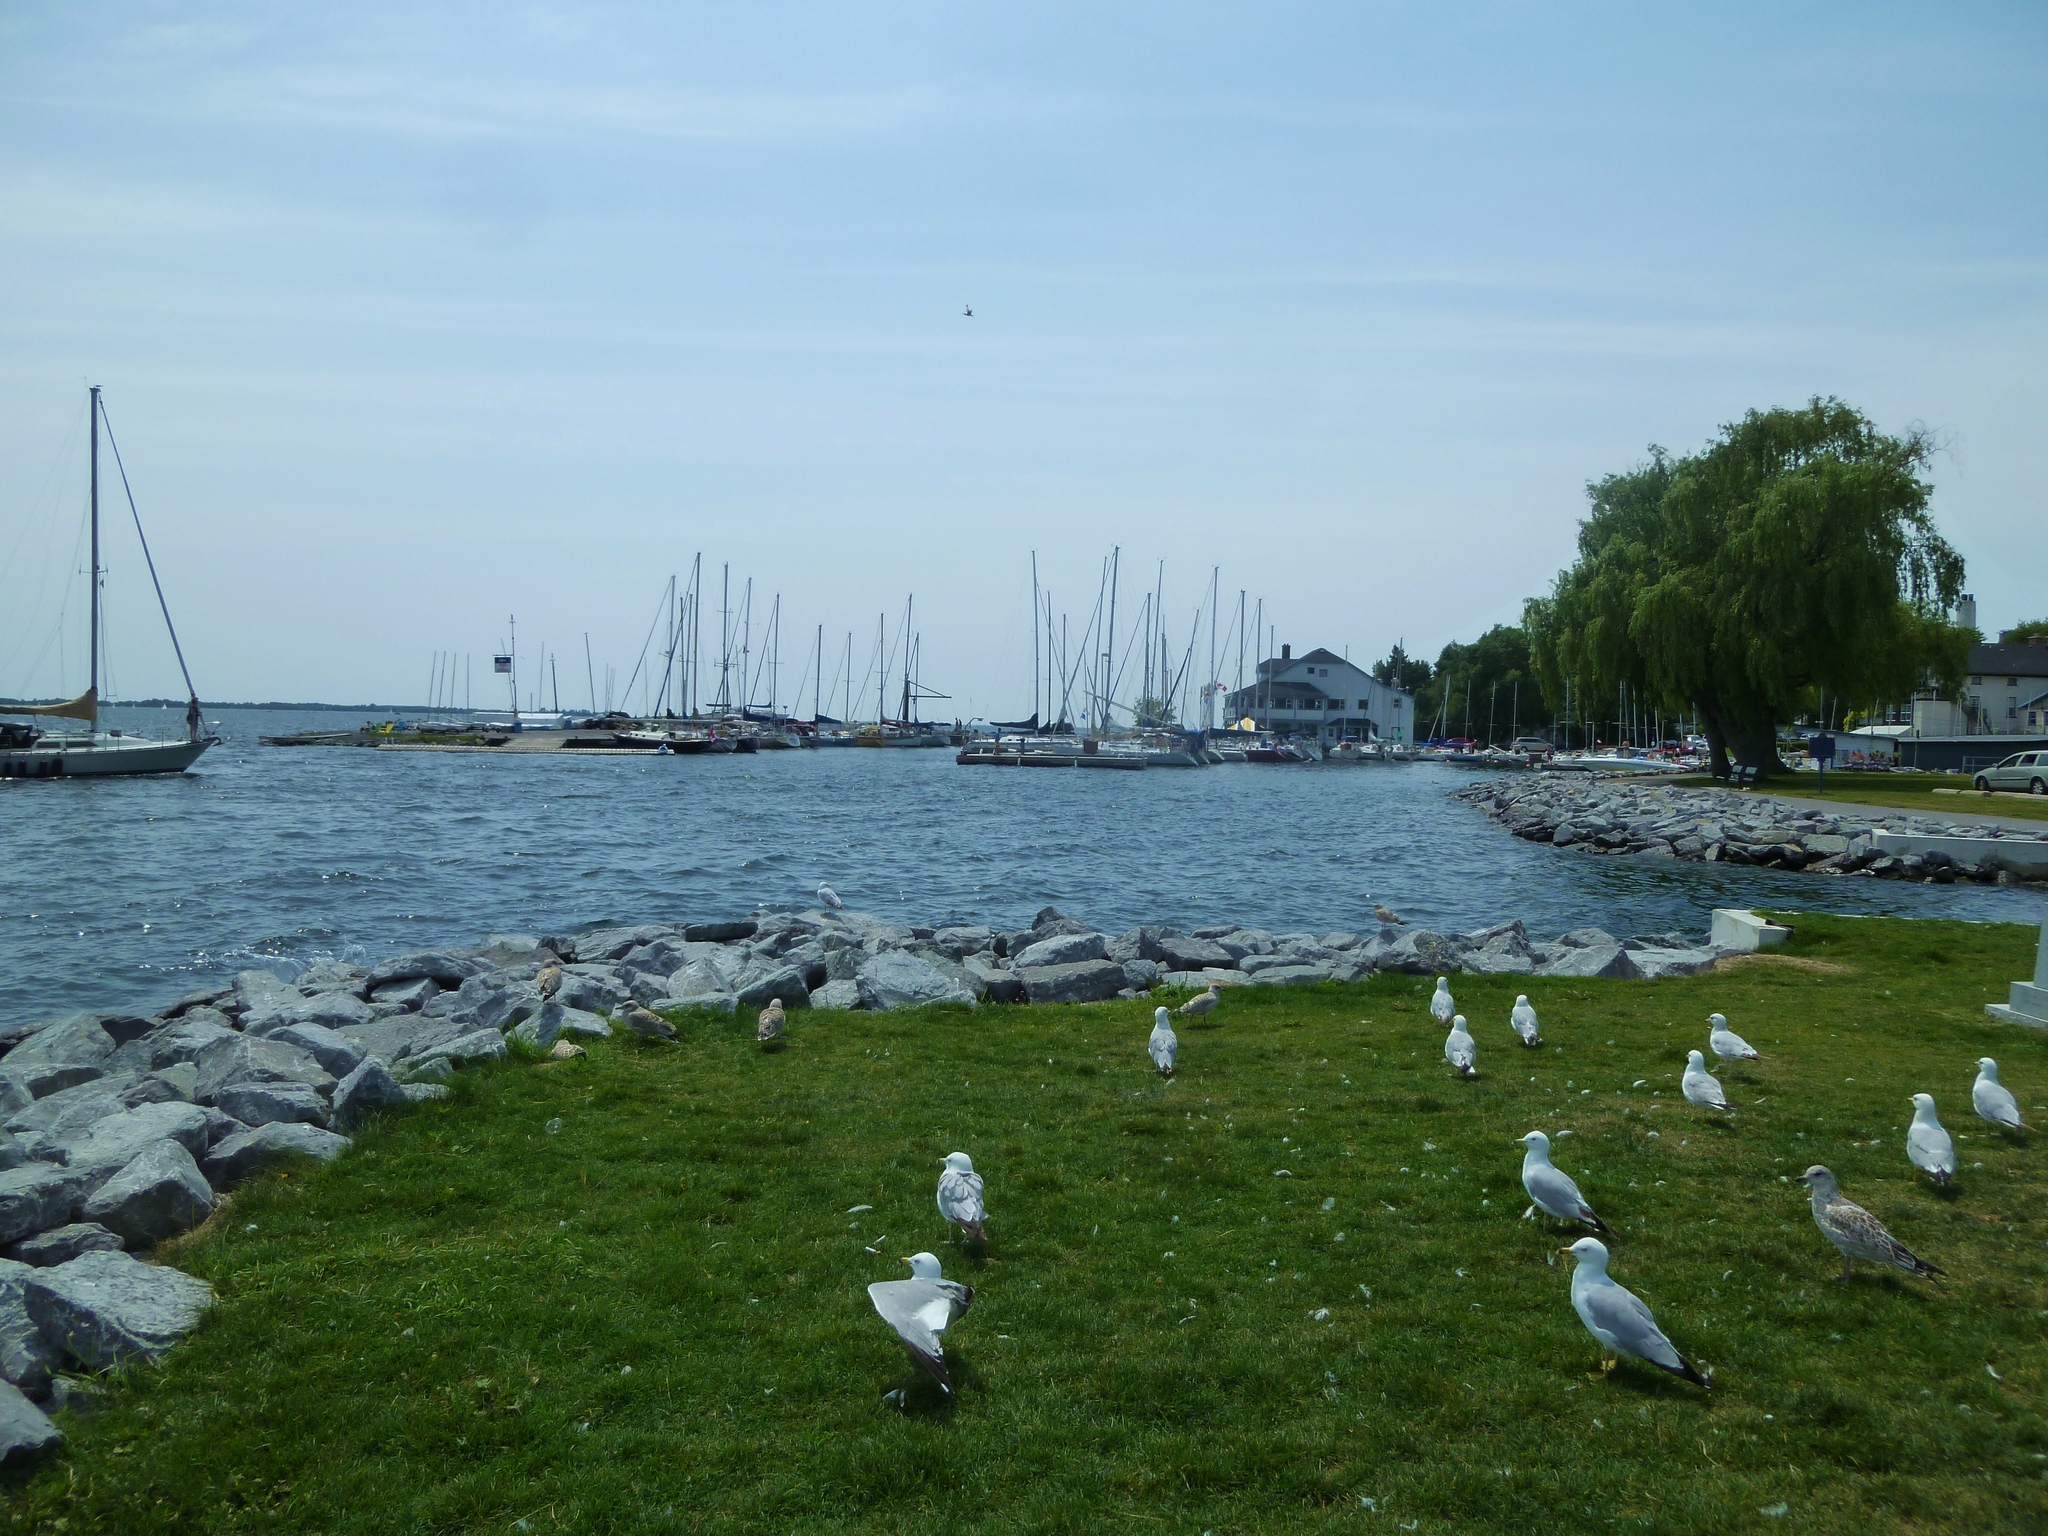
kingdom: Animalia
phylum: Chordata
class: Aves
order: Charadriiformes
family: Laridae
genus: Larus
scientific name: Larus delawarensis
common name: Ring-billed gull
